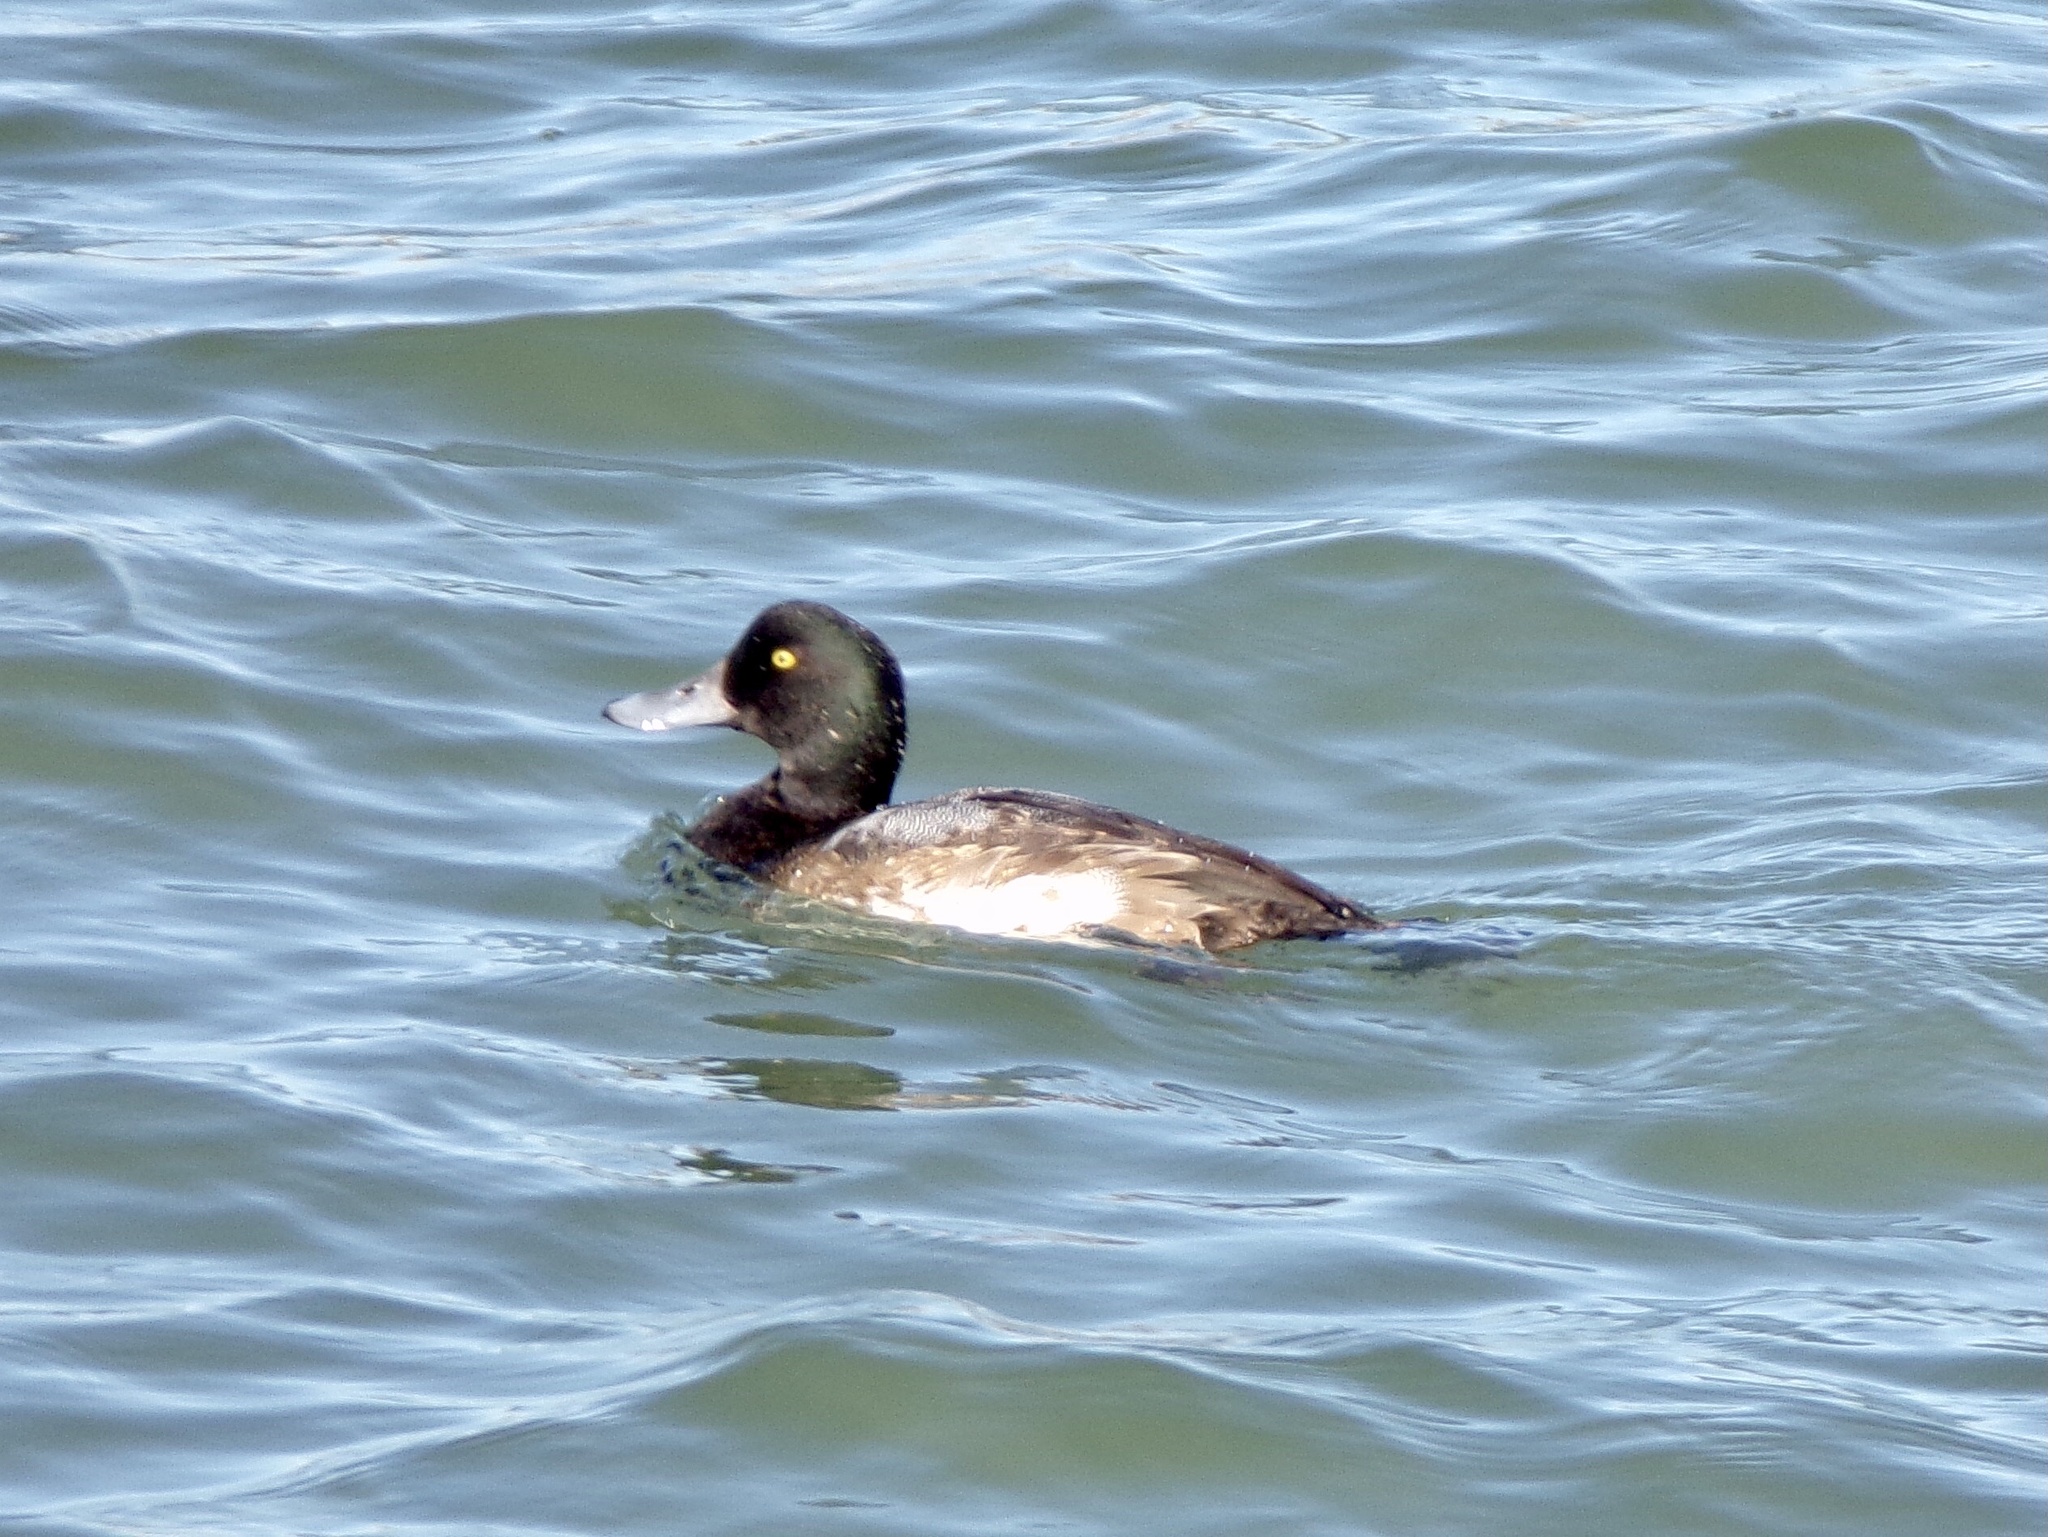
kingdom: Animalia
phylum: Chordata
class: Aves
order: Anseriformes
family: Anatidae
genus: Aythya
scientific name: Aythya marila
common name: Greater scaup
